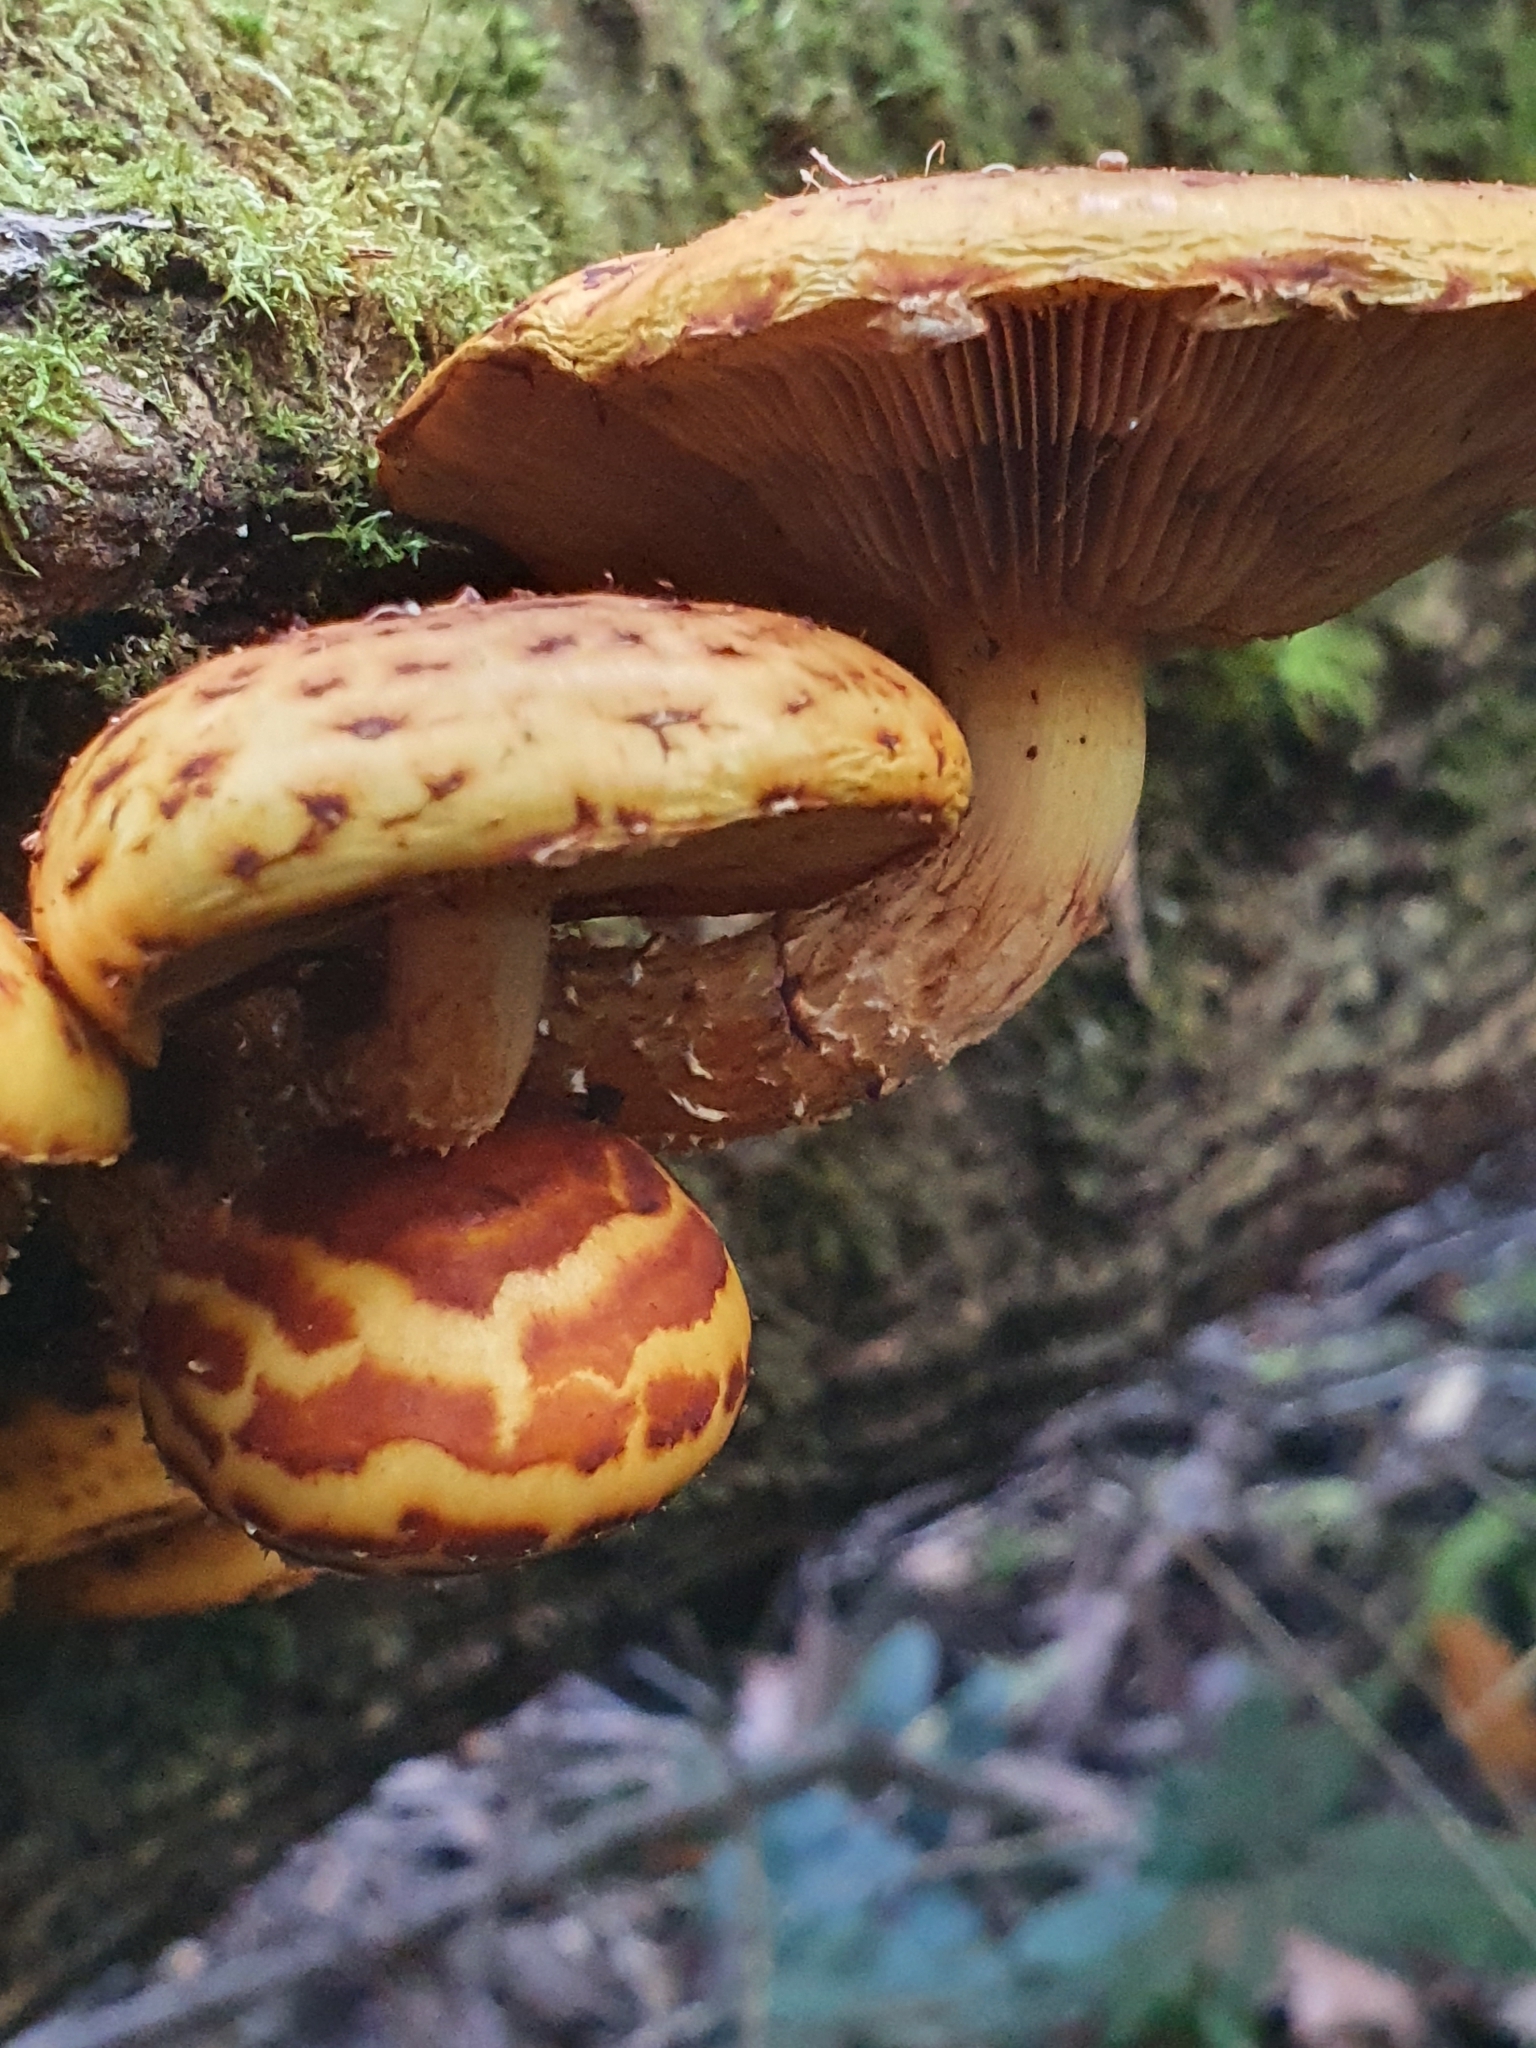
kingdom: Fungi
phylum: Basidiomycota
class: Agaricomycetes
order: Agaricales
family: Strophariaceae
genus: Pholiota
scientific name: Pholiota aurivella
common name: Golden scalycap
